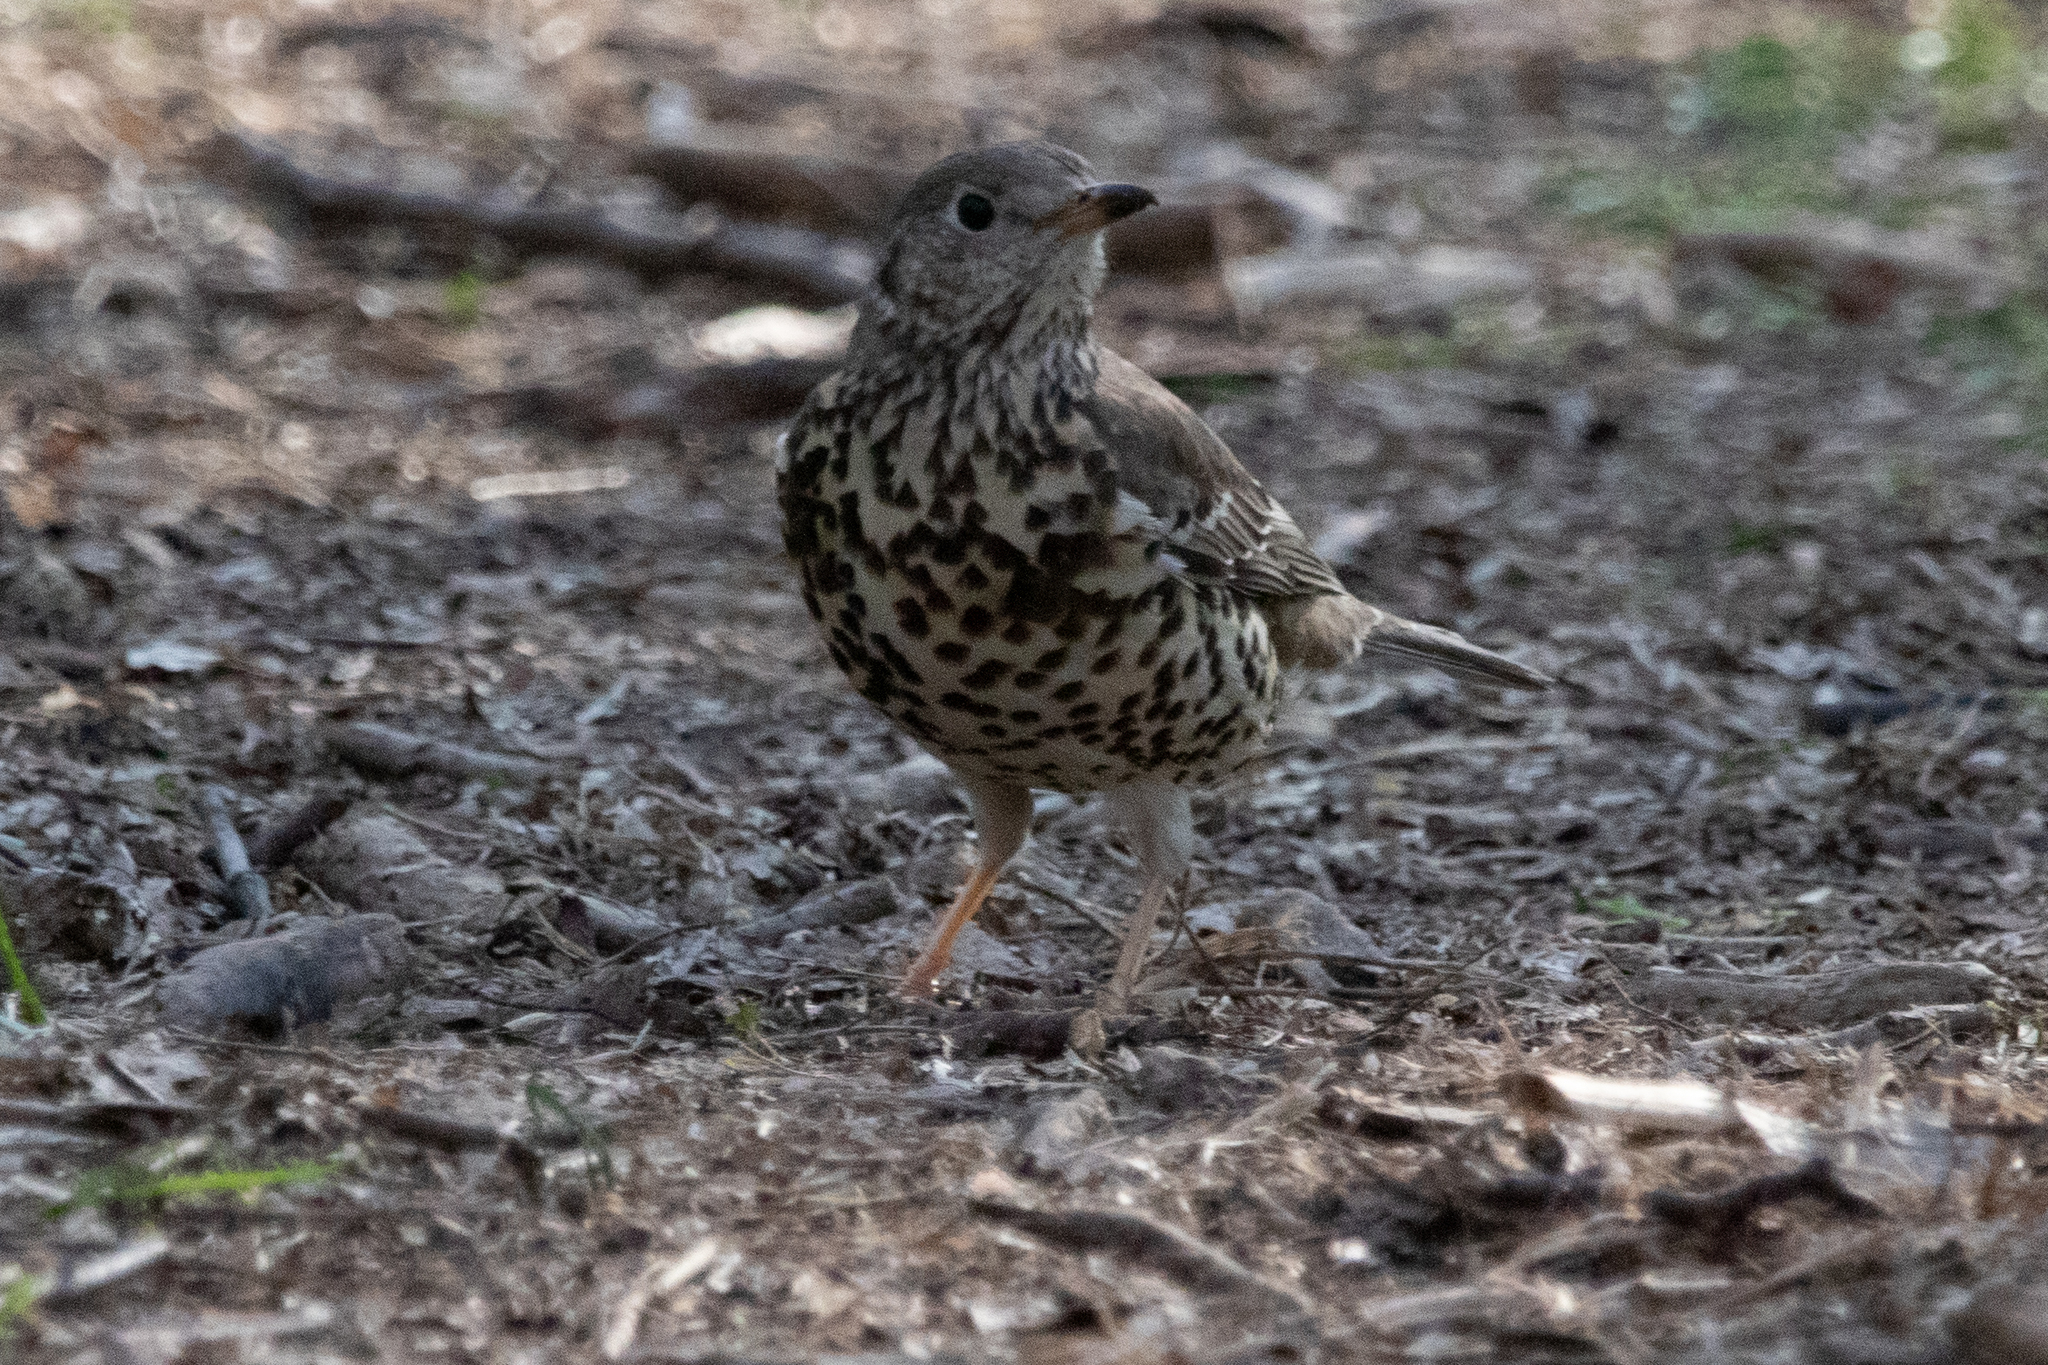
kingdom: Animalia
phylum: Chordata
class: Aves
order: Passeriformes
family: Turdidae
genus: Turdus
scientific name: Turdus viscivorus
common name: Mistle thrush
